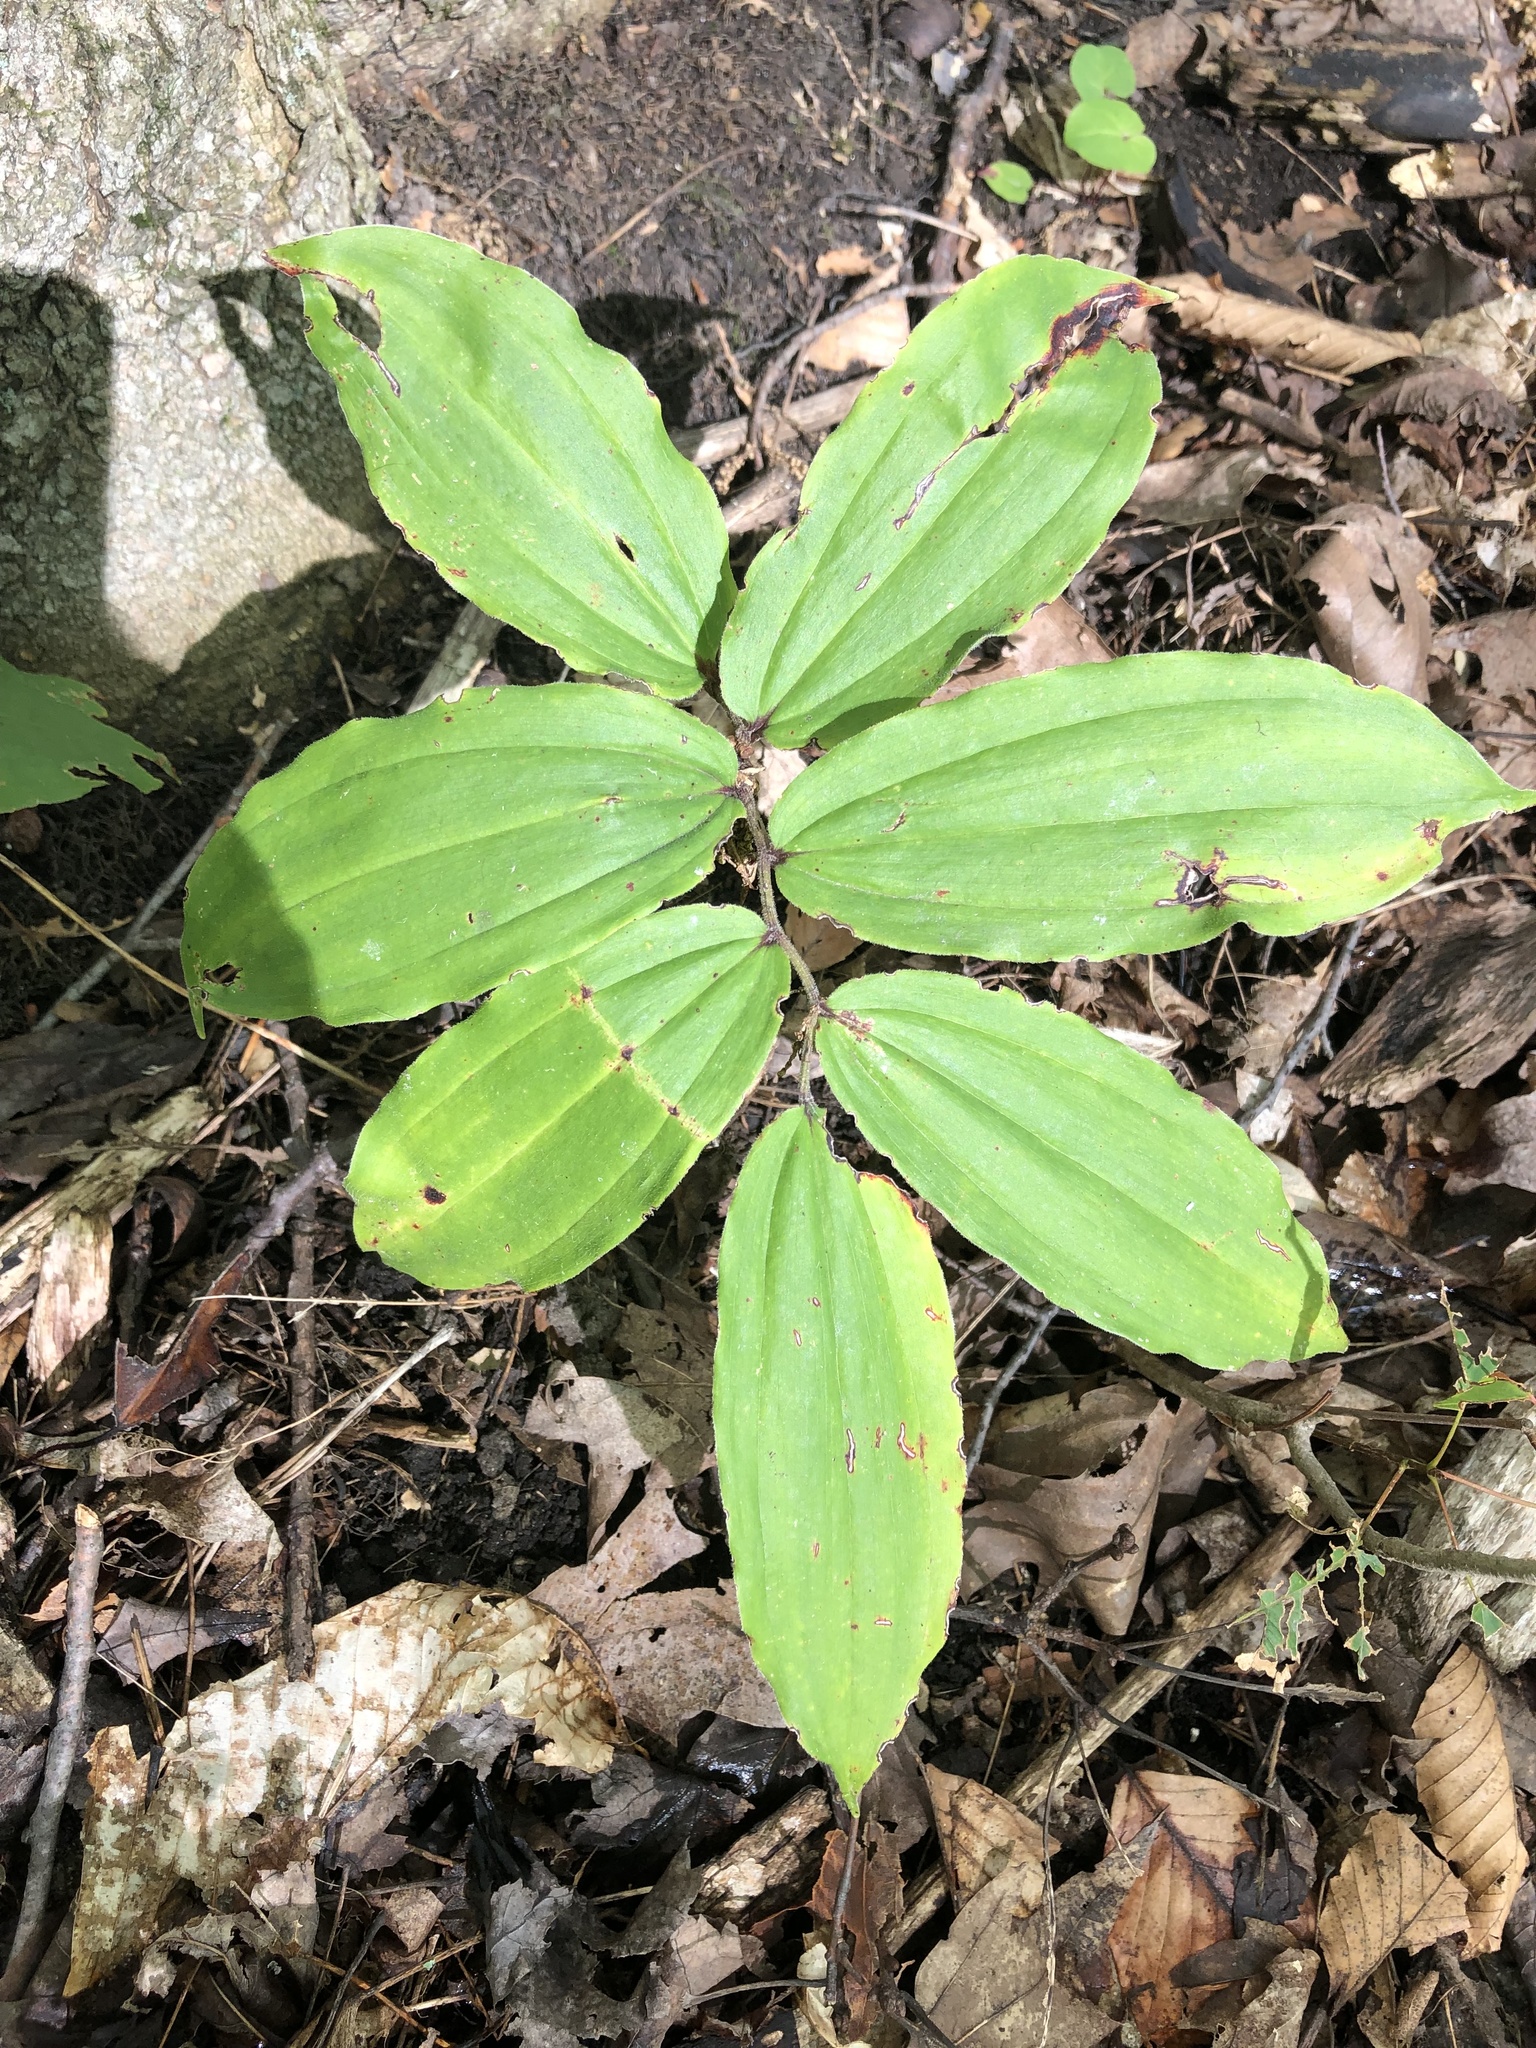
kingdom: Plantae
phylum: Tracheophyta
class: Liliopsida
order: Asparagales
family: Asparagaceae
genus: Maianthemum
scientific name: Maianthemum racemosum
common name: False spikenard
